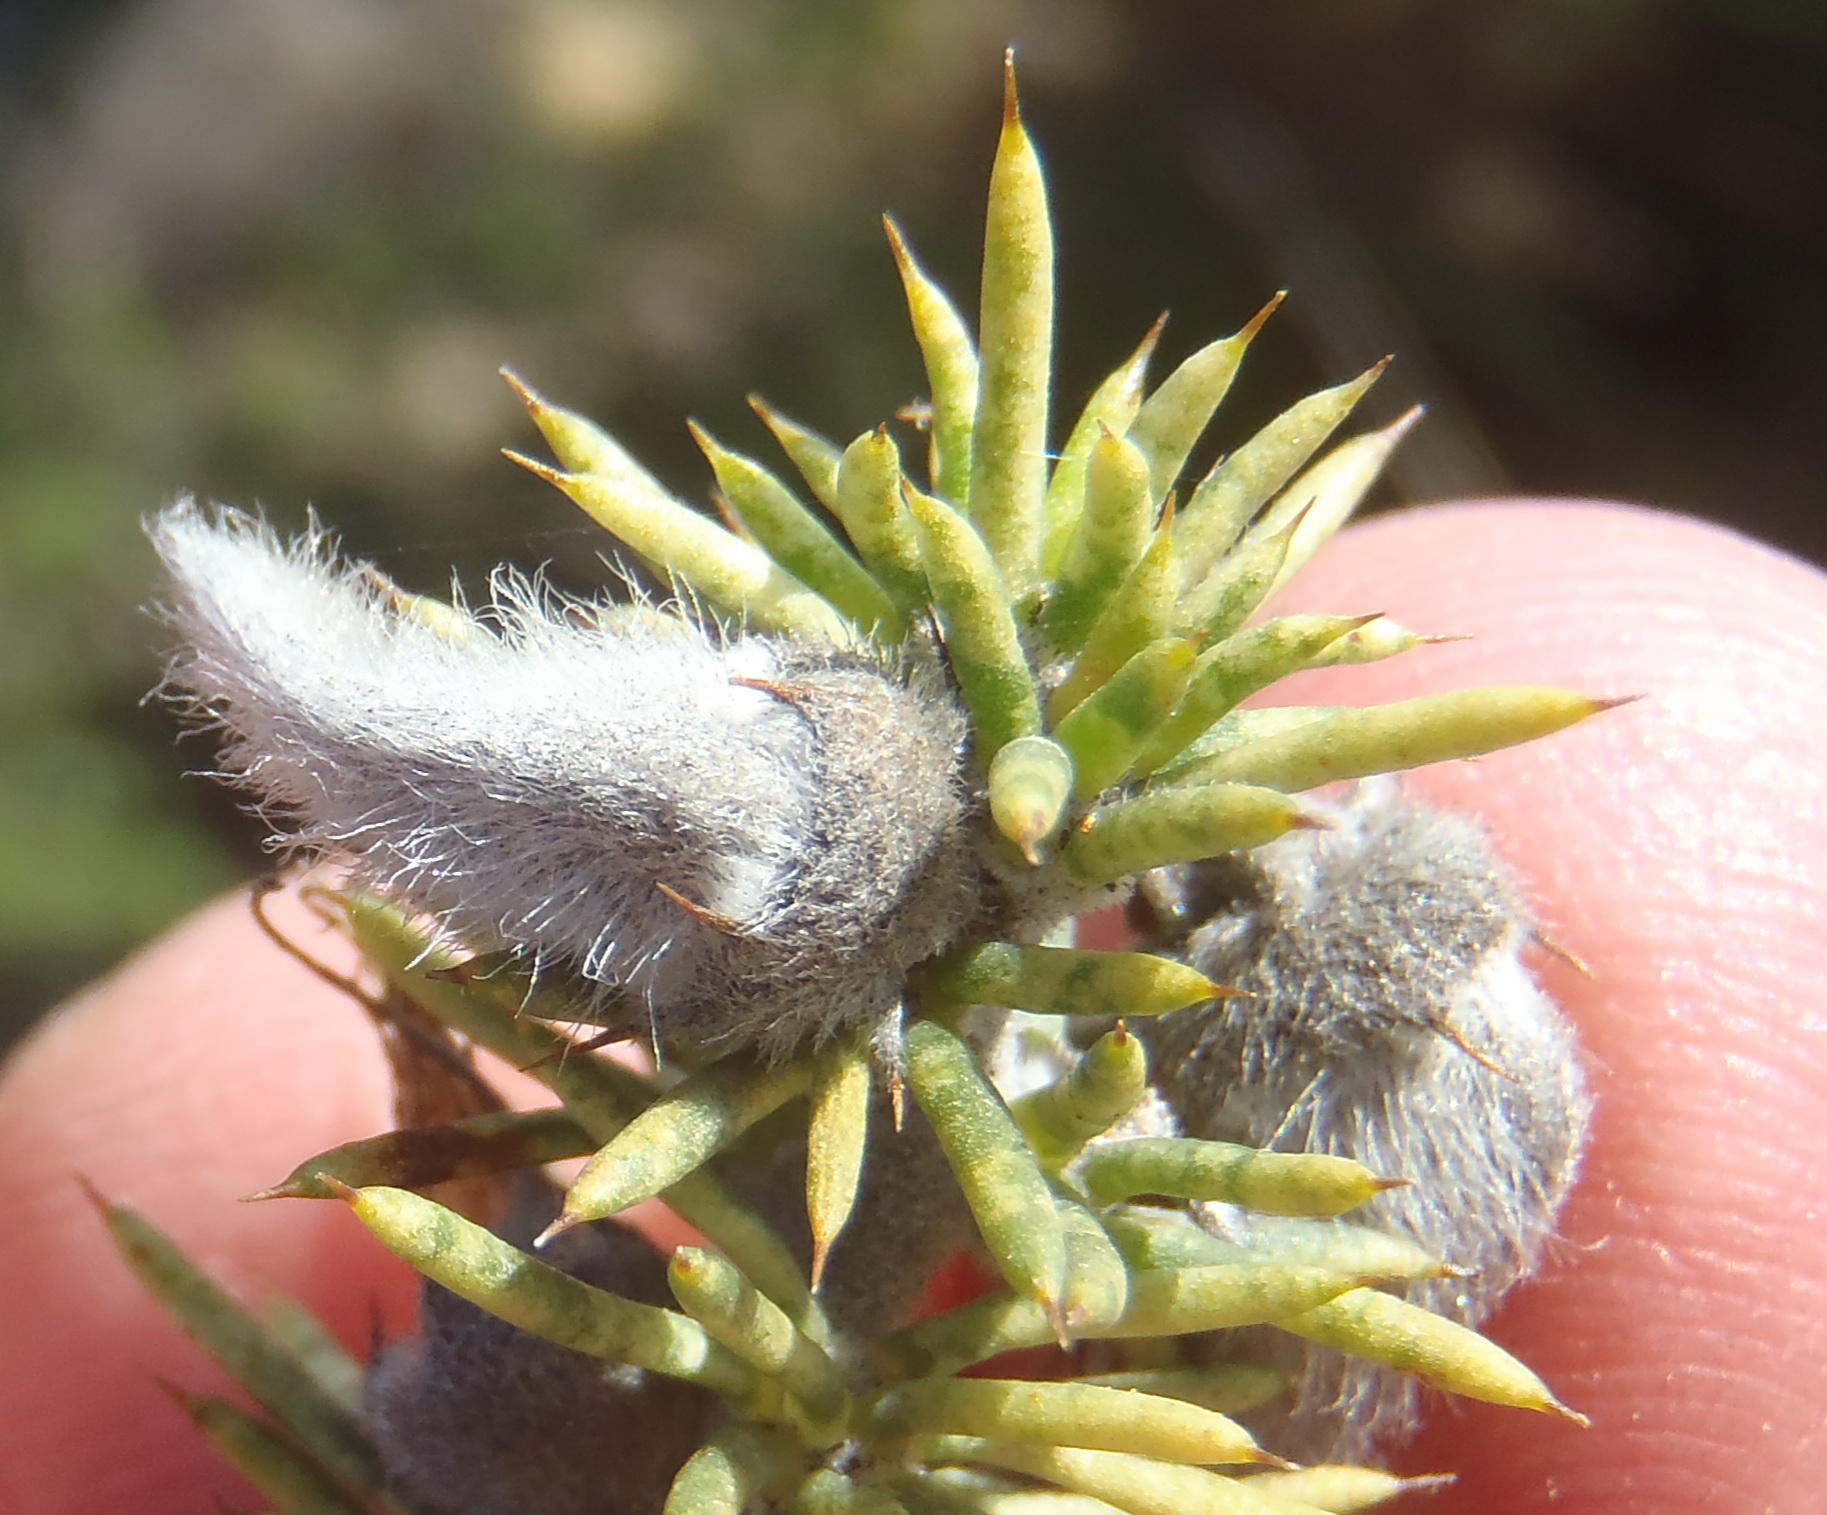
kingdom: Plantae
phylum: Tracheophyta
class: Magnoliopsida
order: Fabales
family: Fabaceae
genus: Aspalathus
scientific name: Aspalathus hirta
